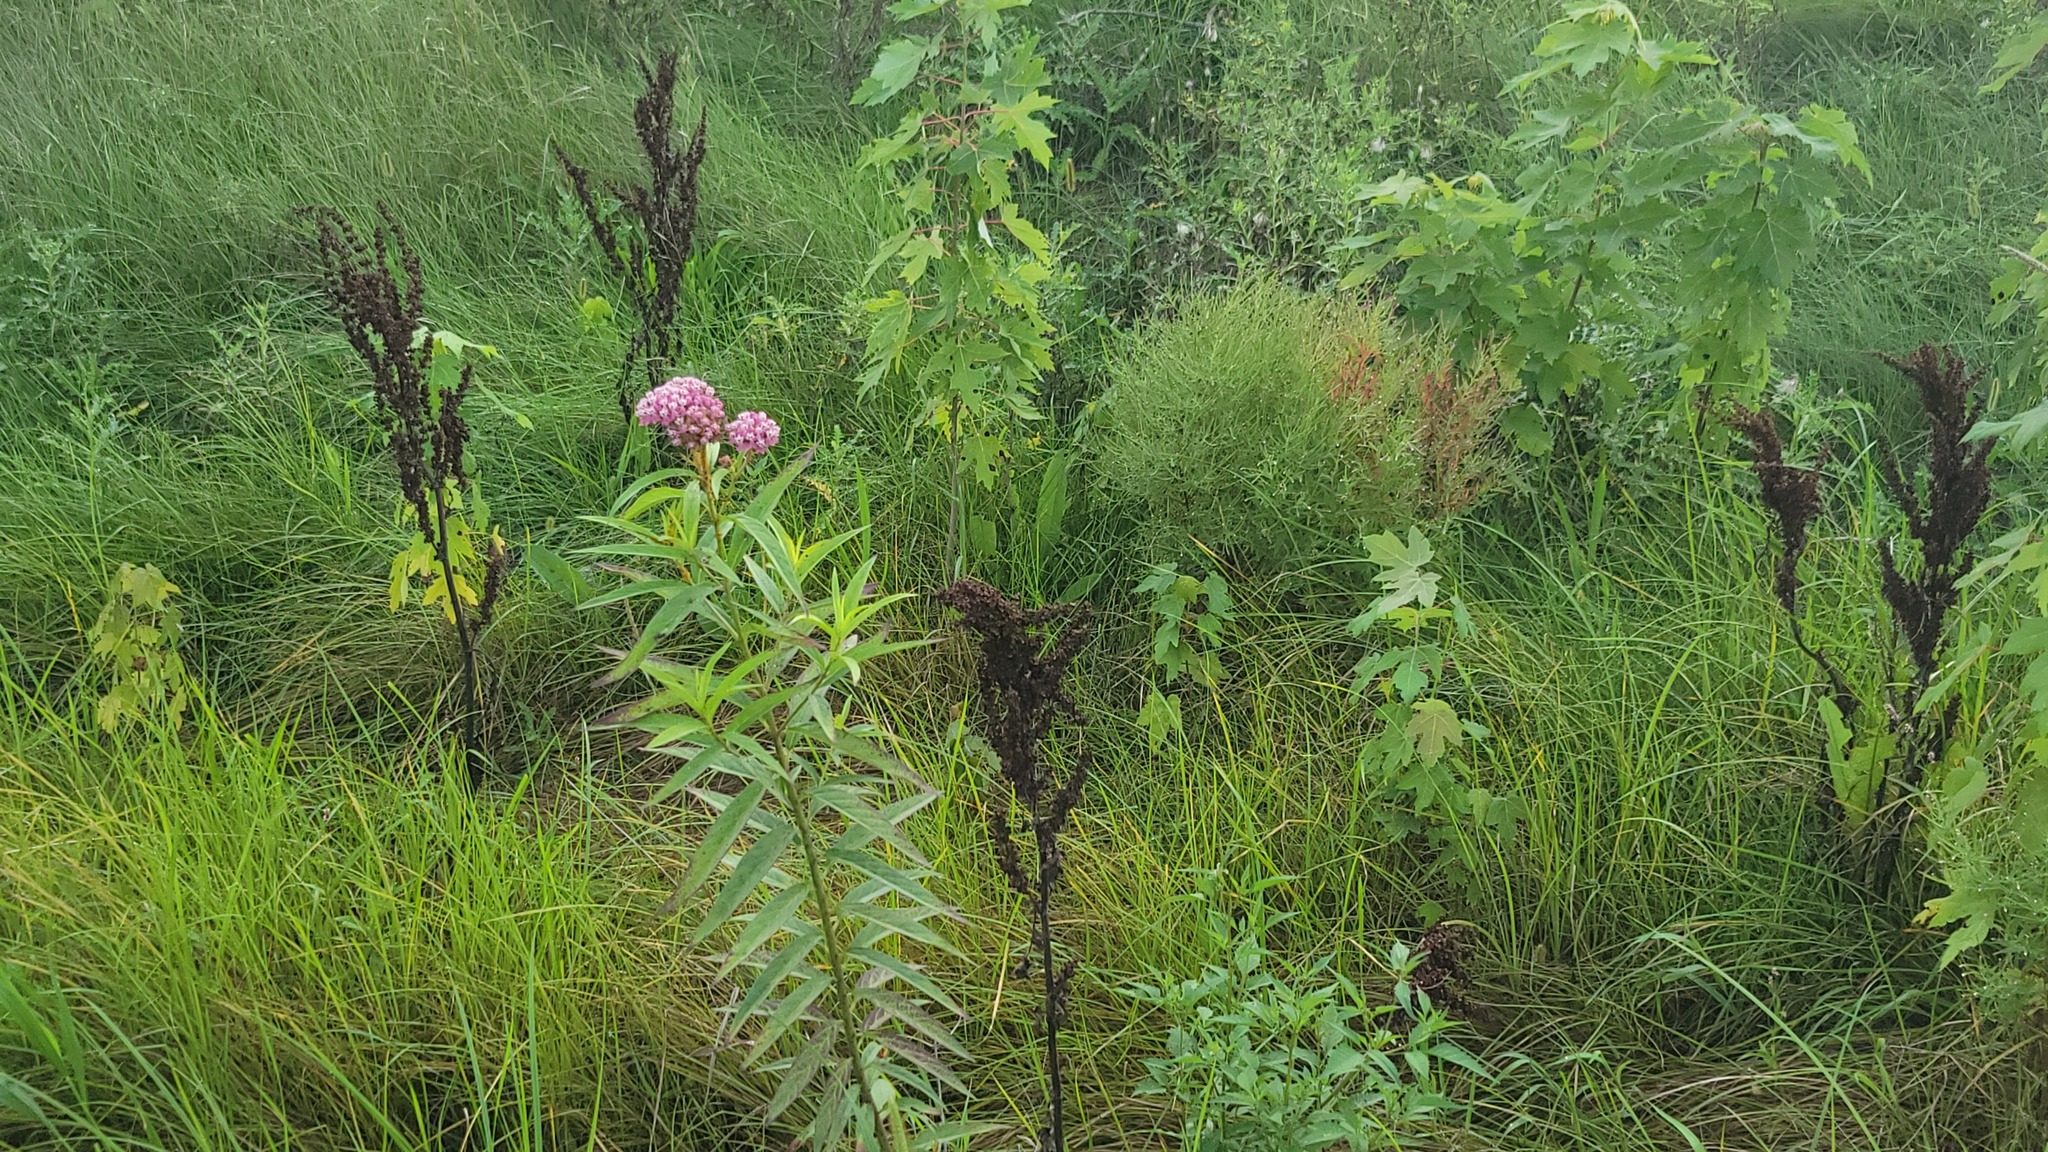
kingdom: Plantae
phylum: Tracheophyta
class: Magnoliopsida
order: Gentianales
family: Apocynaceae
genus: Asclepias
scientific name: Asclepias incarnata
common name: Swamp milkweed
